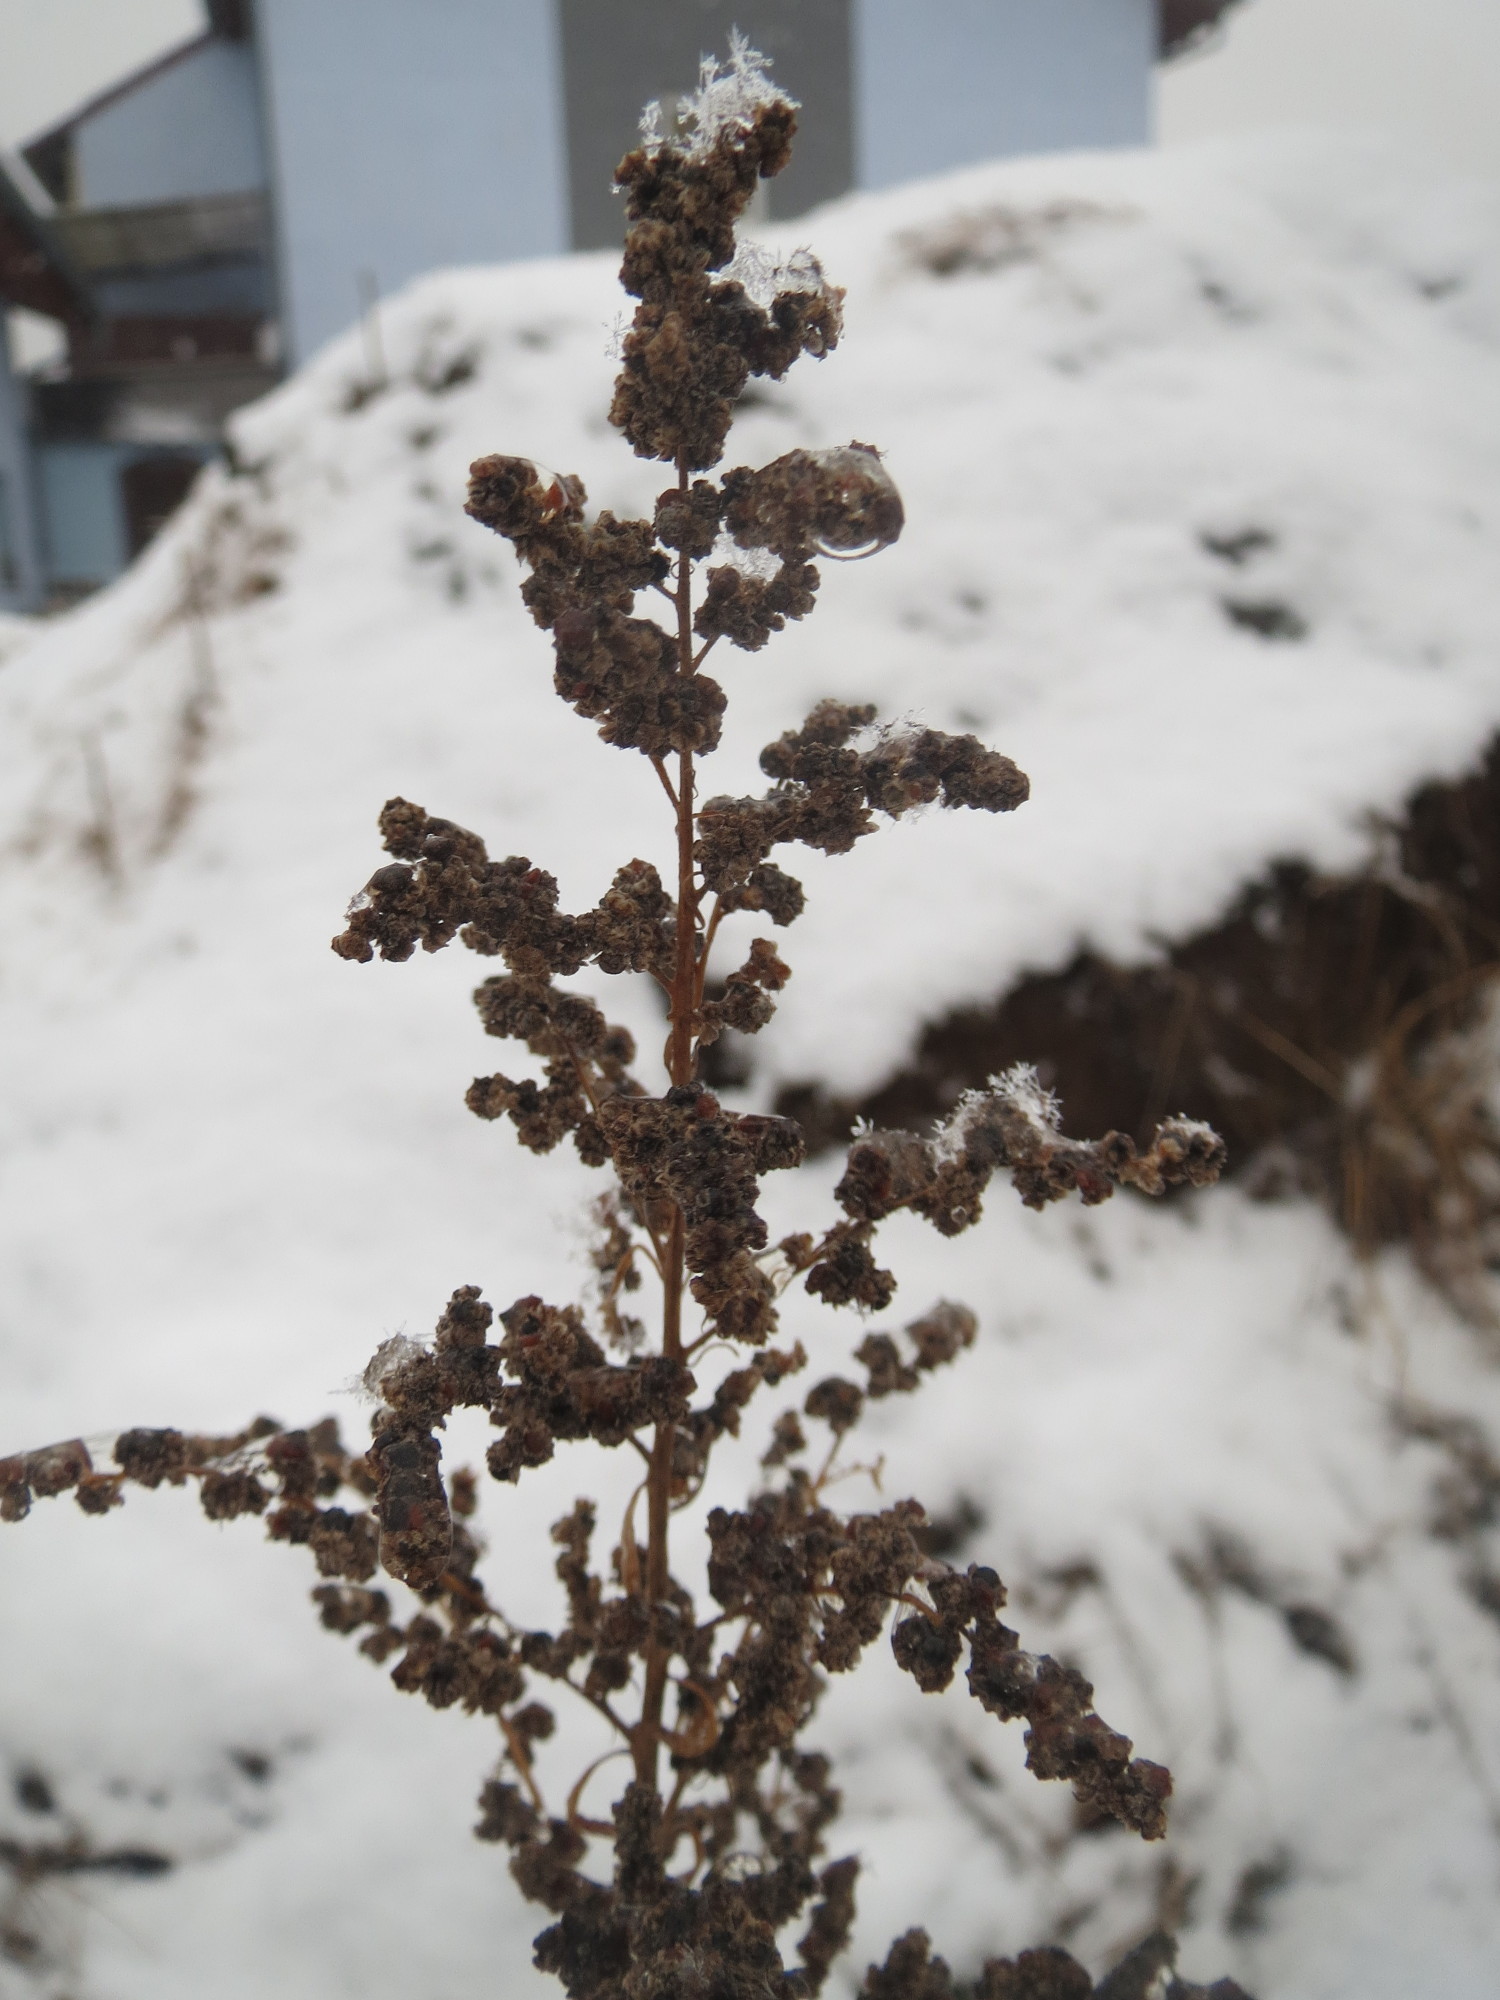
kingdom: Plantae
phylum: Tracheophyta
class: Magnoliopsida
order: Caryophyllales
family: Amaranthaceae
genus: Chenopodium
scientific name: Chenopodium album
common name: Fat-hen
